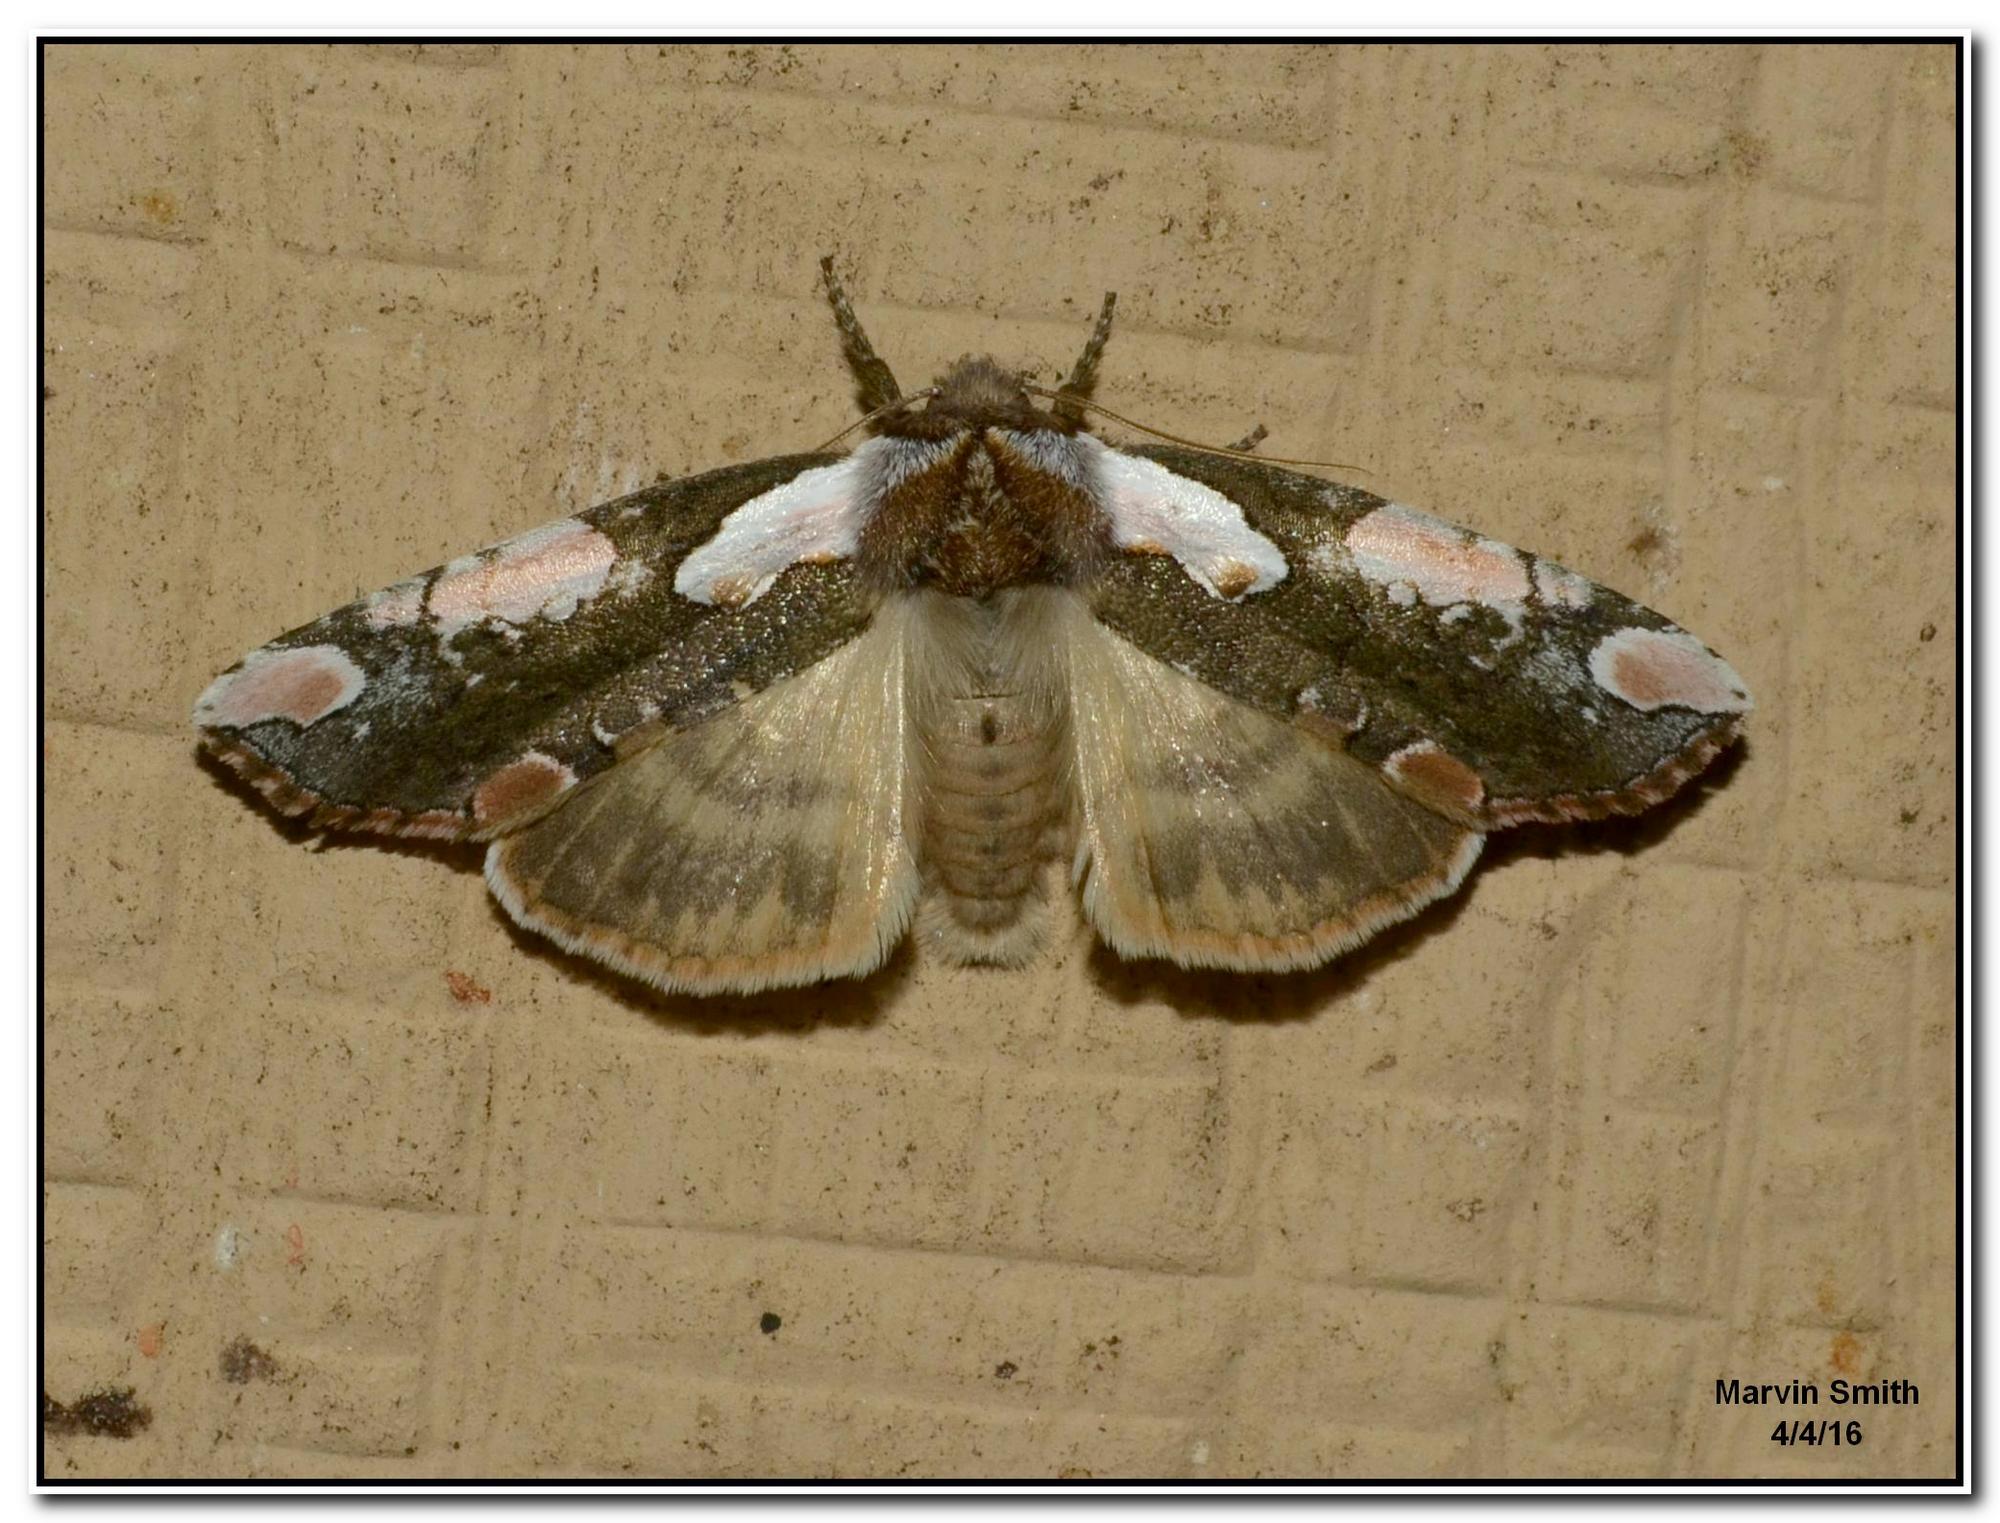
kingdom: Animalia
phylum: Arthropoda
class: Insecta
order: Lepidoptera
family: Drepanidae
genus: Euthyatira
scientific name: Euthyatira pudens
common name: Dogwood thyatirid moth
